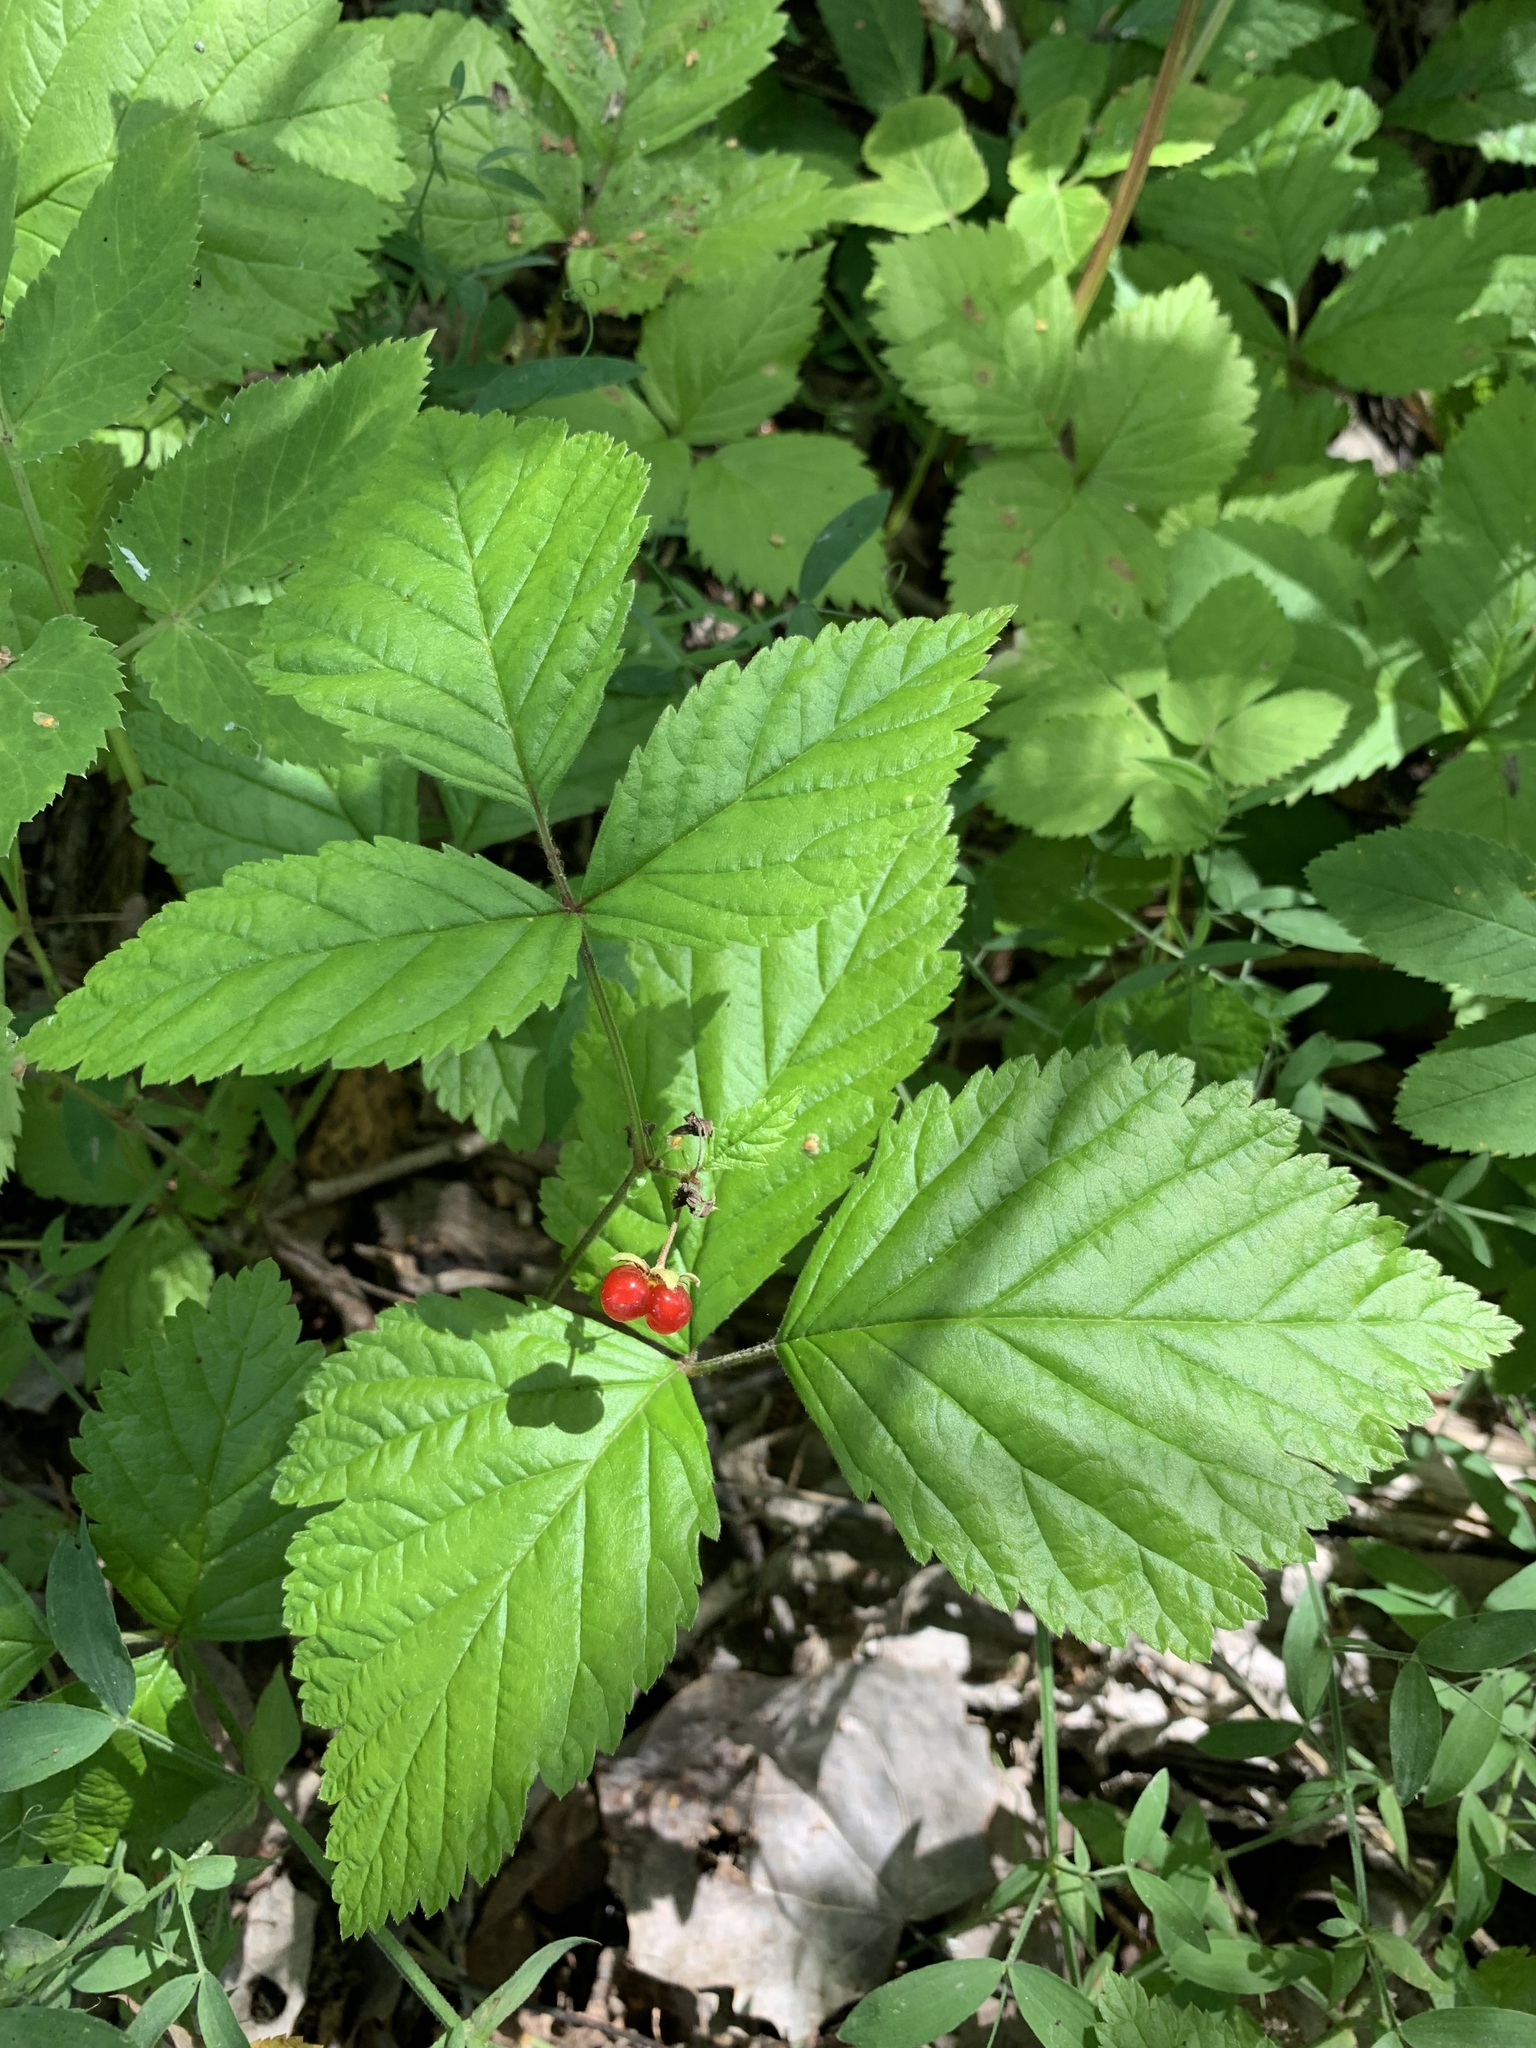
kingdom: Plantae
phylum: Tracheophyta
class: Magnoliopsida
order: Rosales
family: Rosaceae
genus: Rubus
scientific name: Rubus saxatilis
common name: Stone bramble
